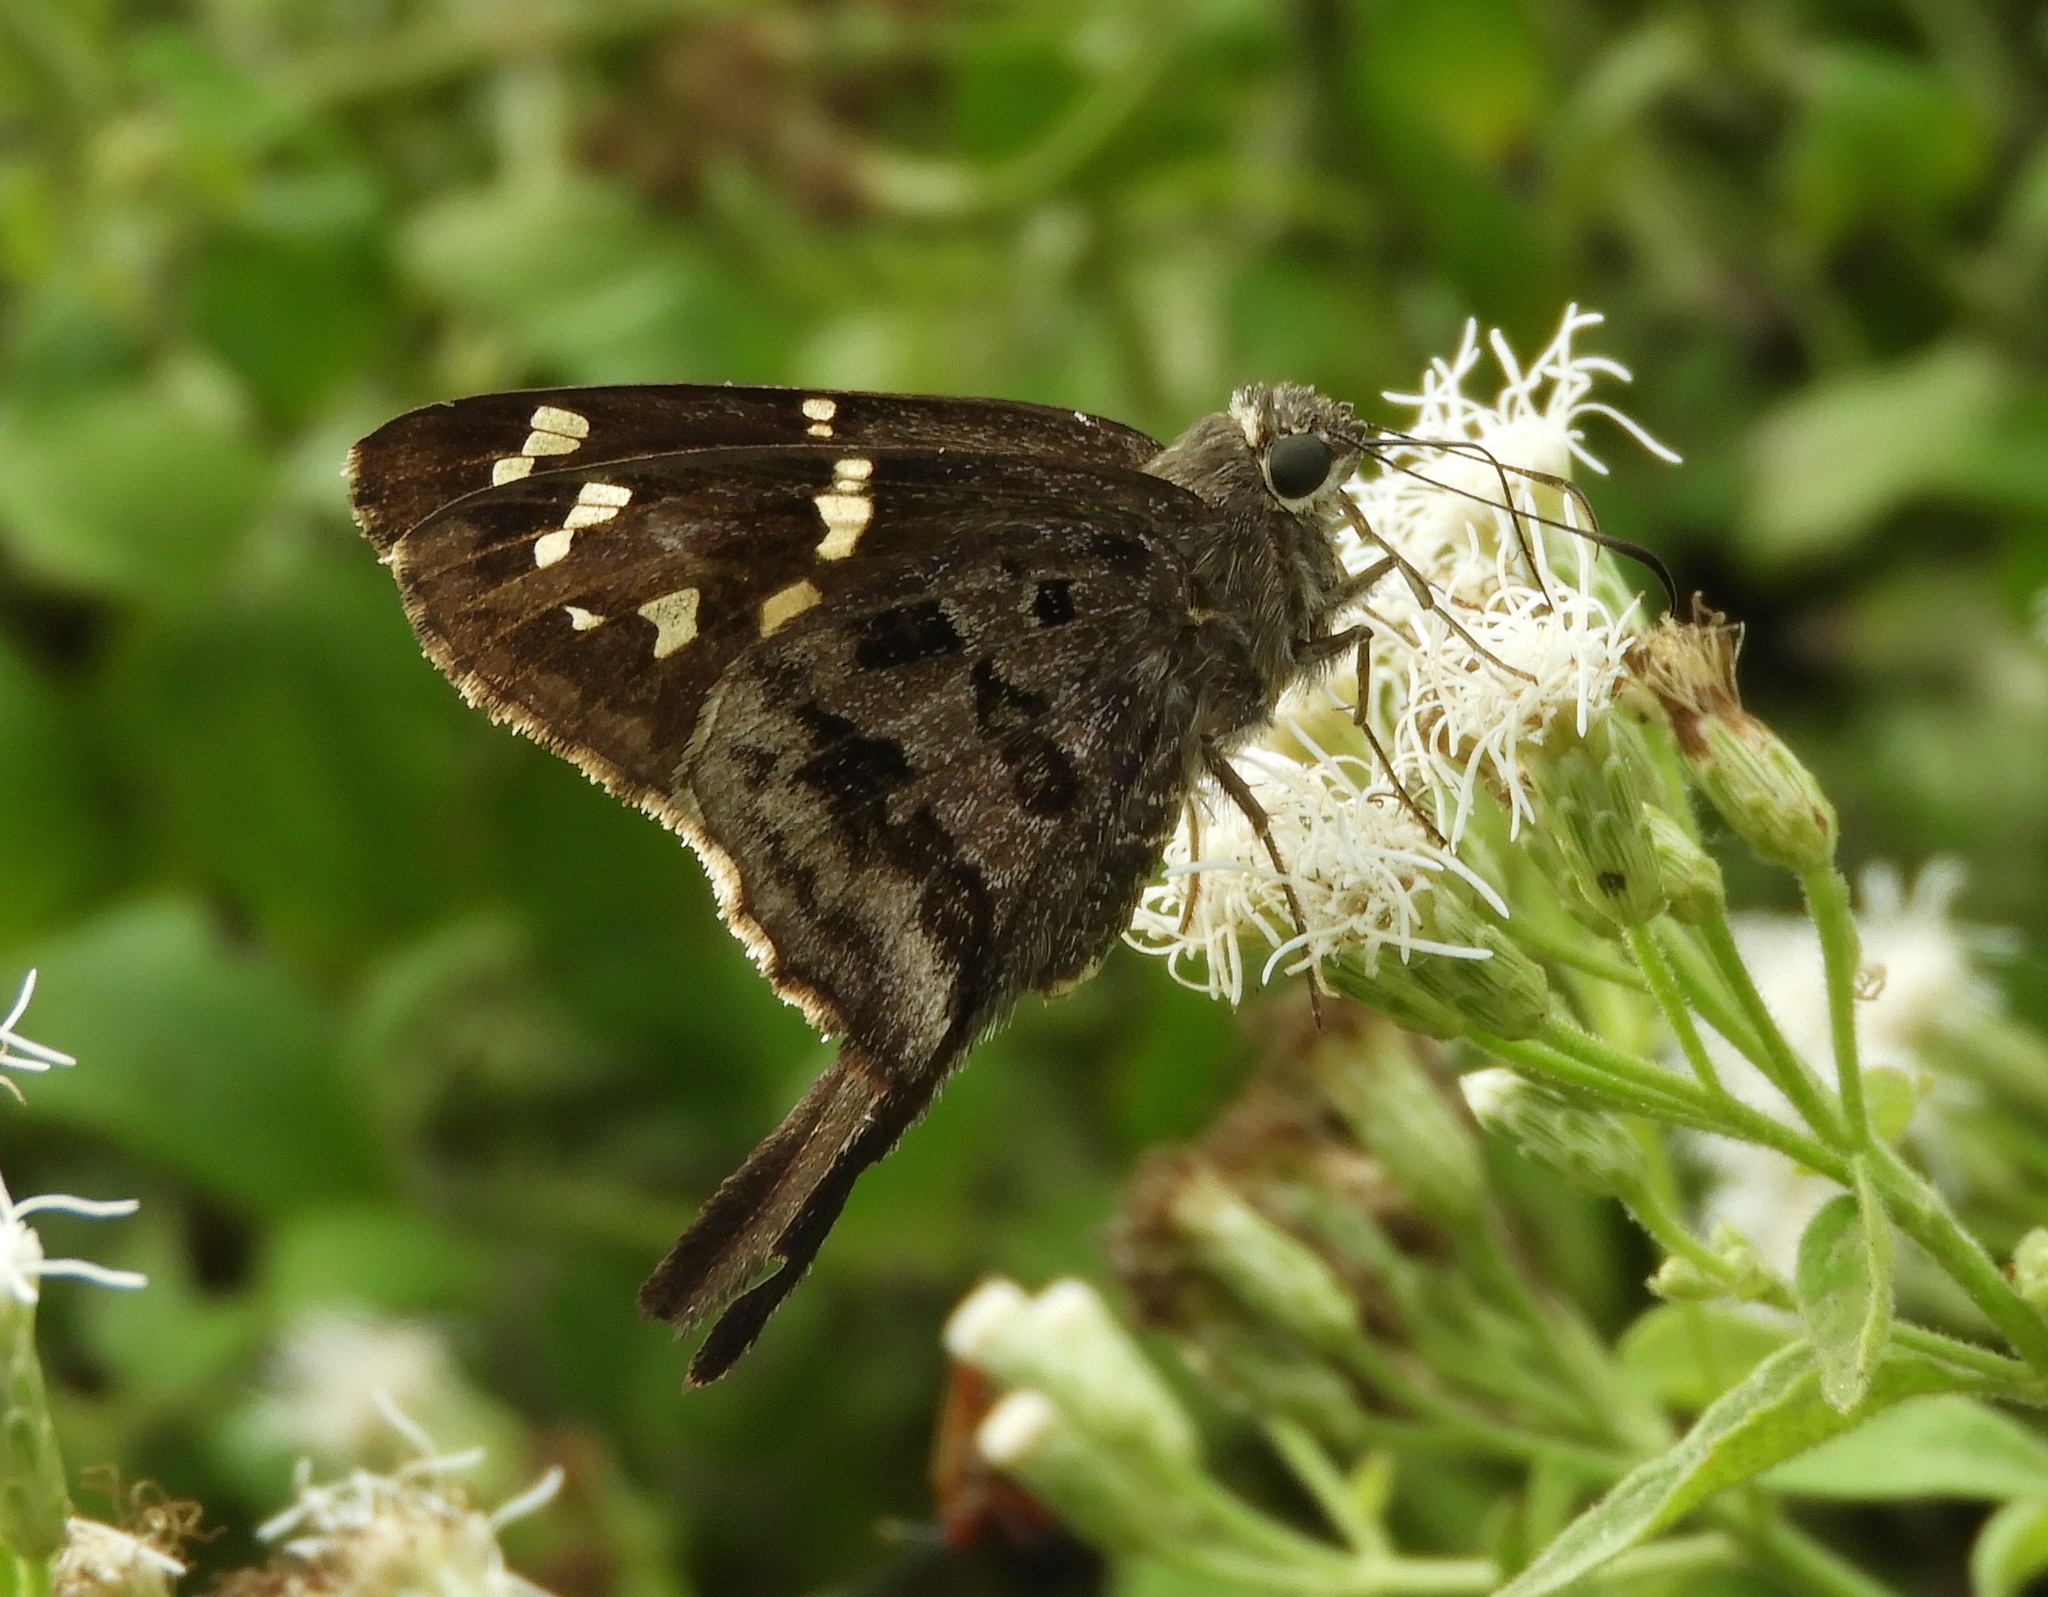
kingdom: Animalia
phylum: Arthropoda
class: Insecta
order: Lepidoptera
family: Hesperiidae
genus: Thorybes
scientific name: Thorybes
